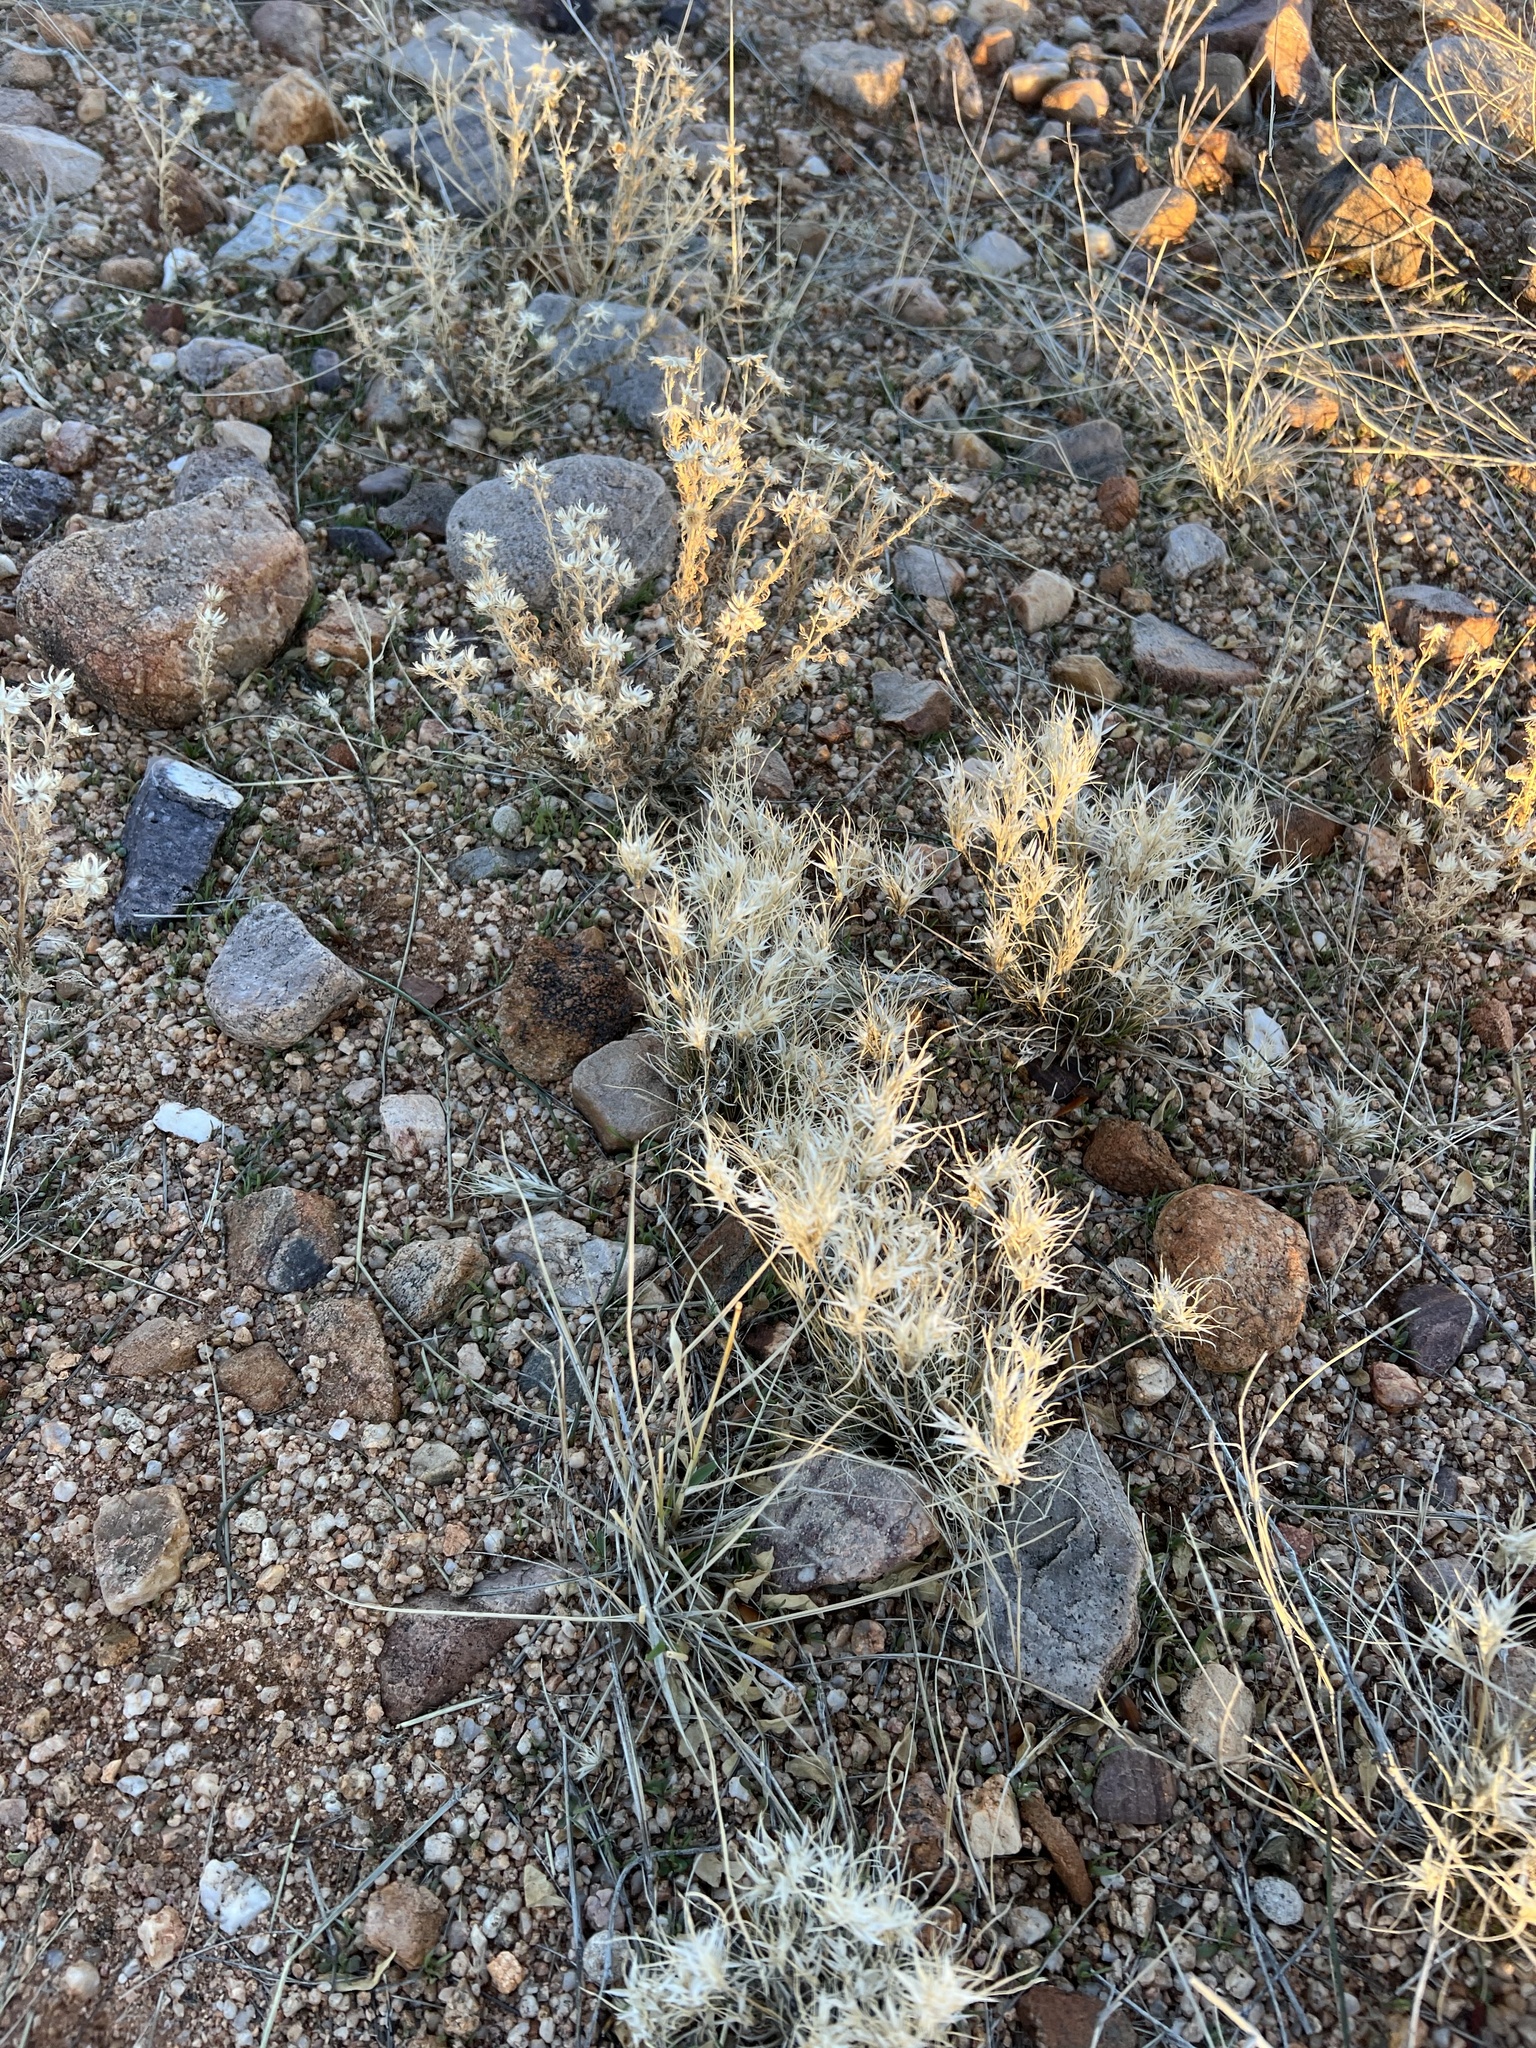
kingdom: Plantae
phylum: Tracheophyta
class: Liliopsida
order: Poales
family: Poaceae
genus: Dasyochloa
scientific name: Dasyochloa pulchella
